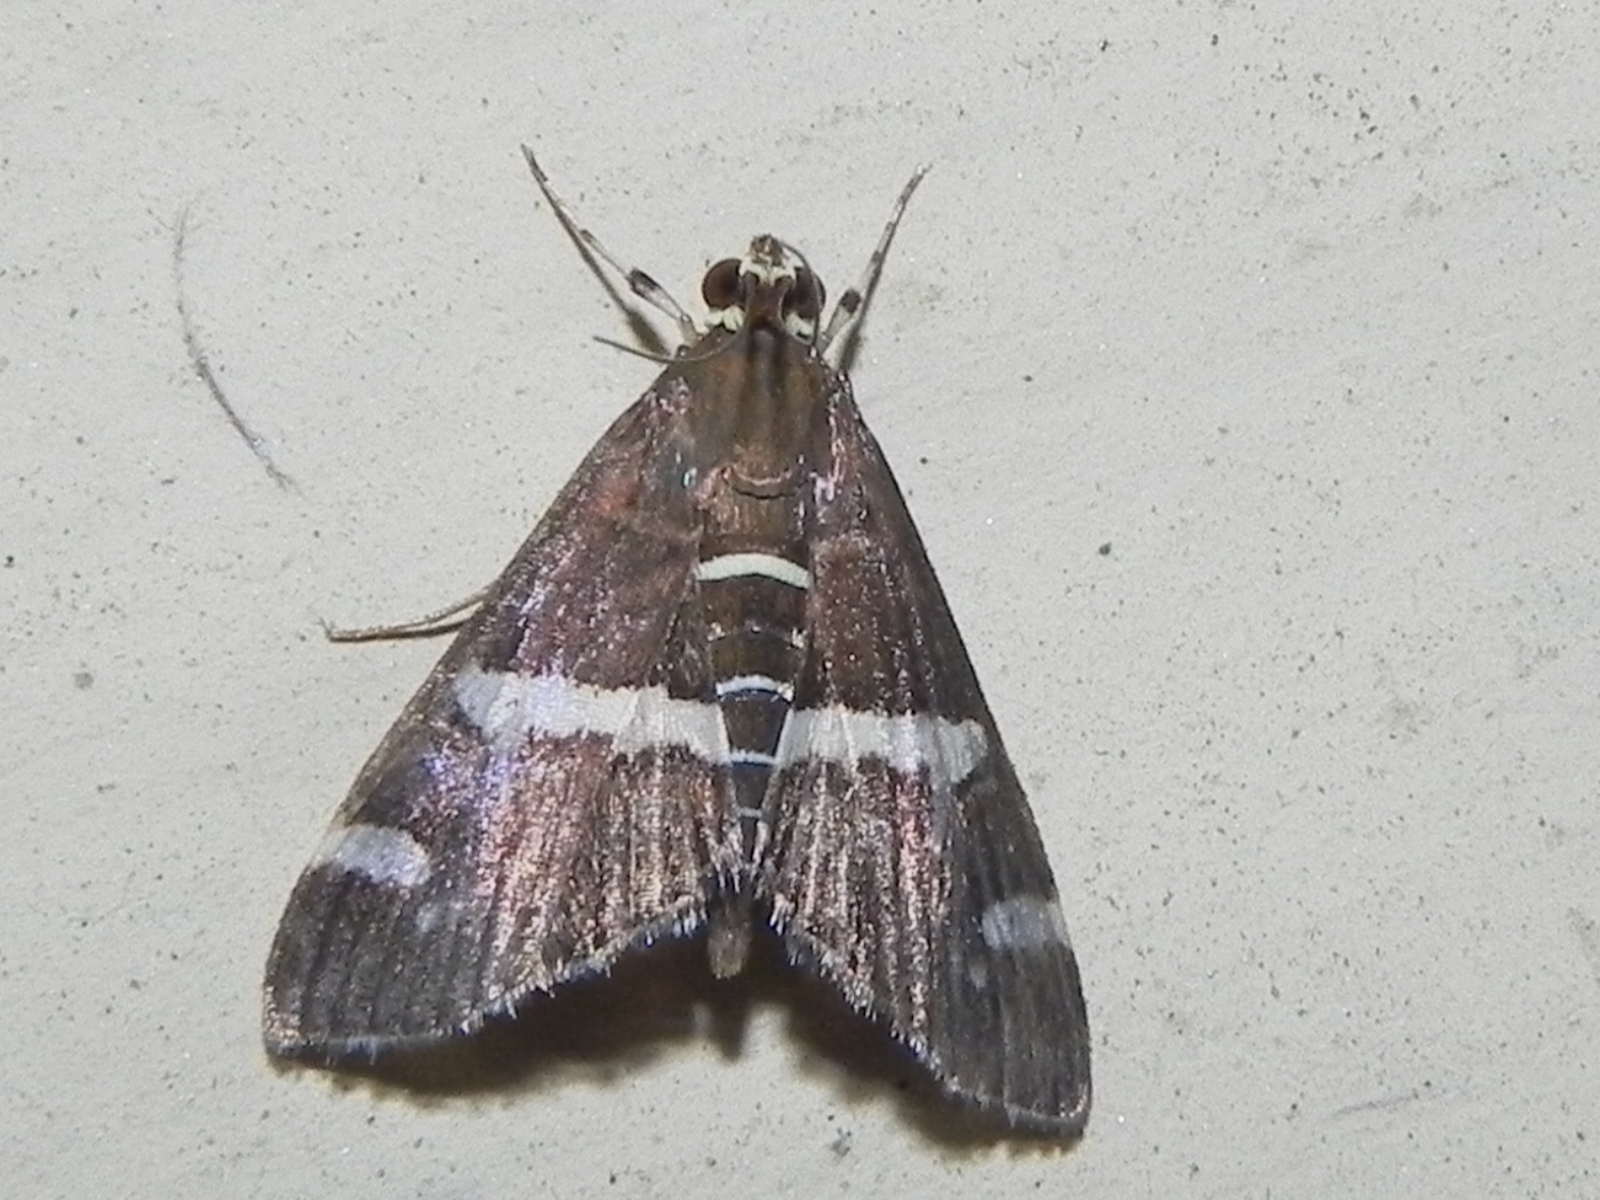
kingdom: Animalia
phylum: Arthropoda
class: Insecta
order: Lepidoptera
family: Crambidae
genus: Spoladea
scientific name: Spoladea recurvalis
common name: Beet webworm moth
